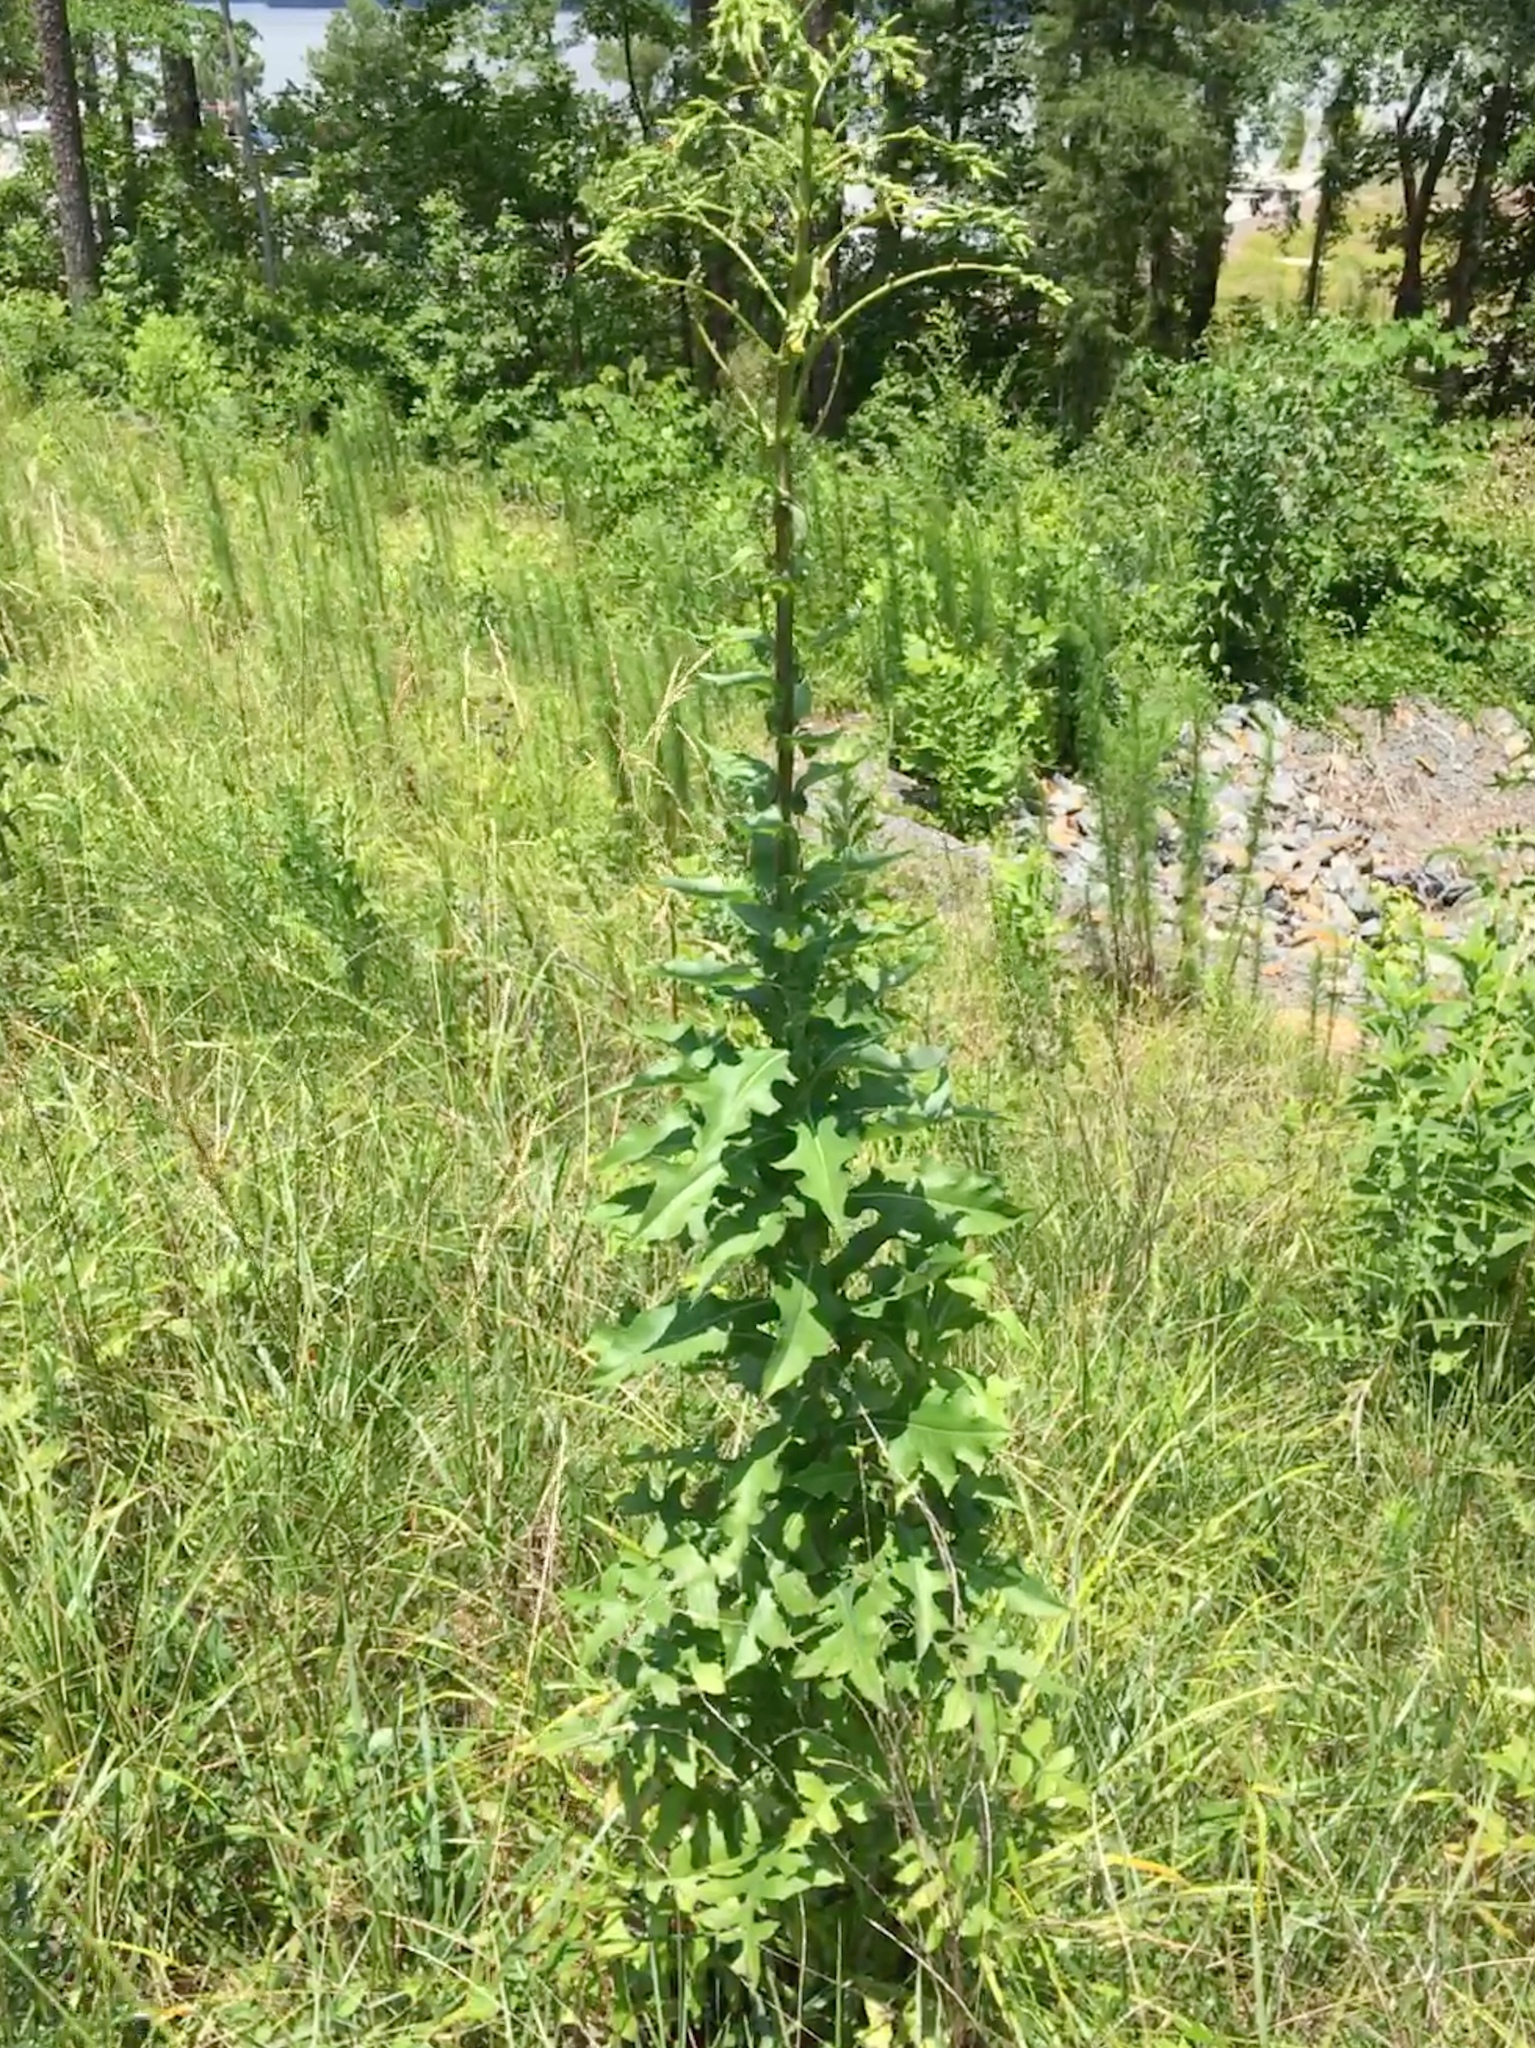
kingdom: Plantae
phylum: Tracheophyta
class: Magnoliopsida
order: Asterales
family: Asteraceae
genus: Lactuca
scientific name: Lactuca canadensis
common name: Canada lettuce
